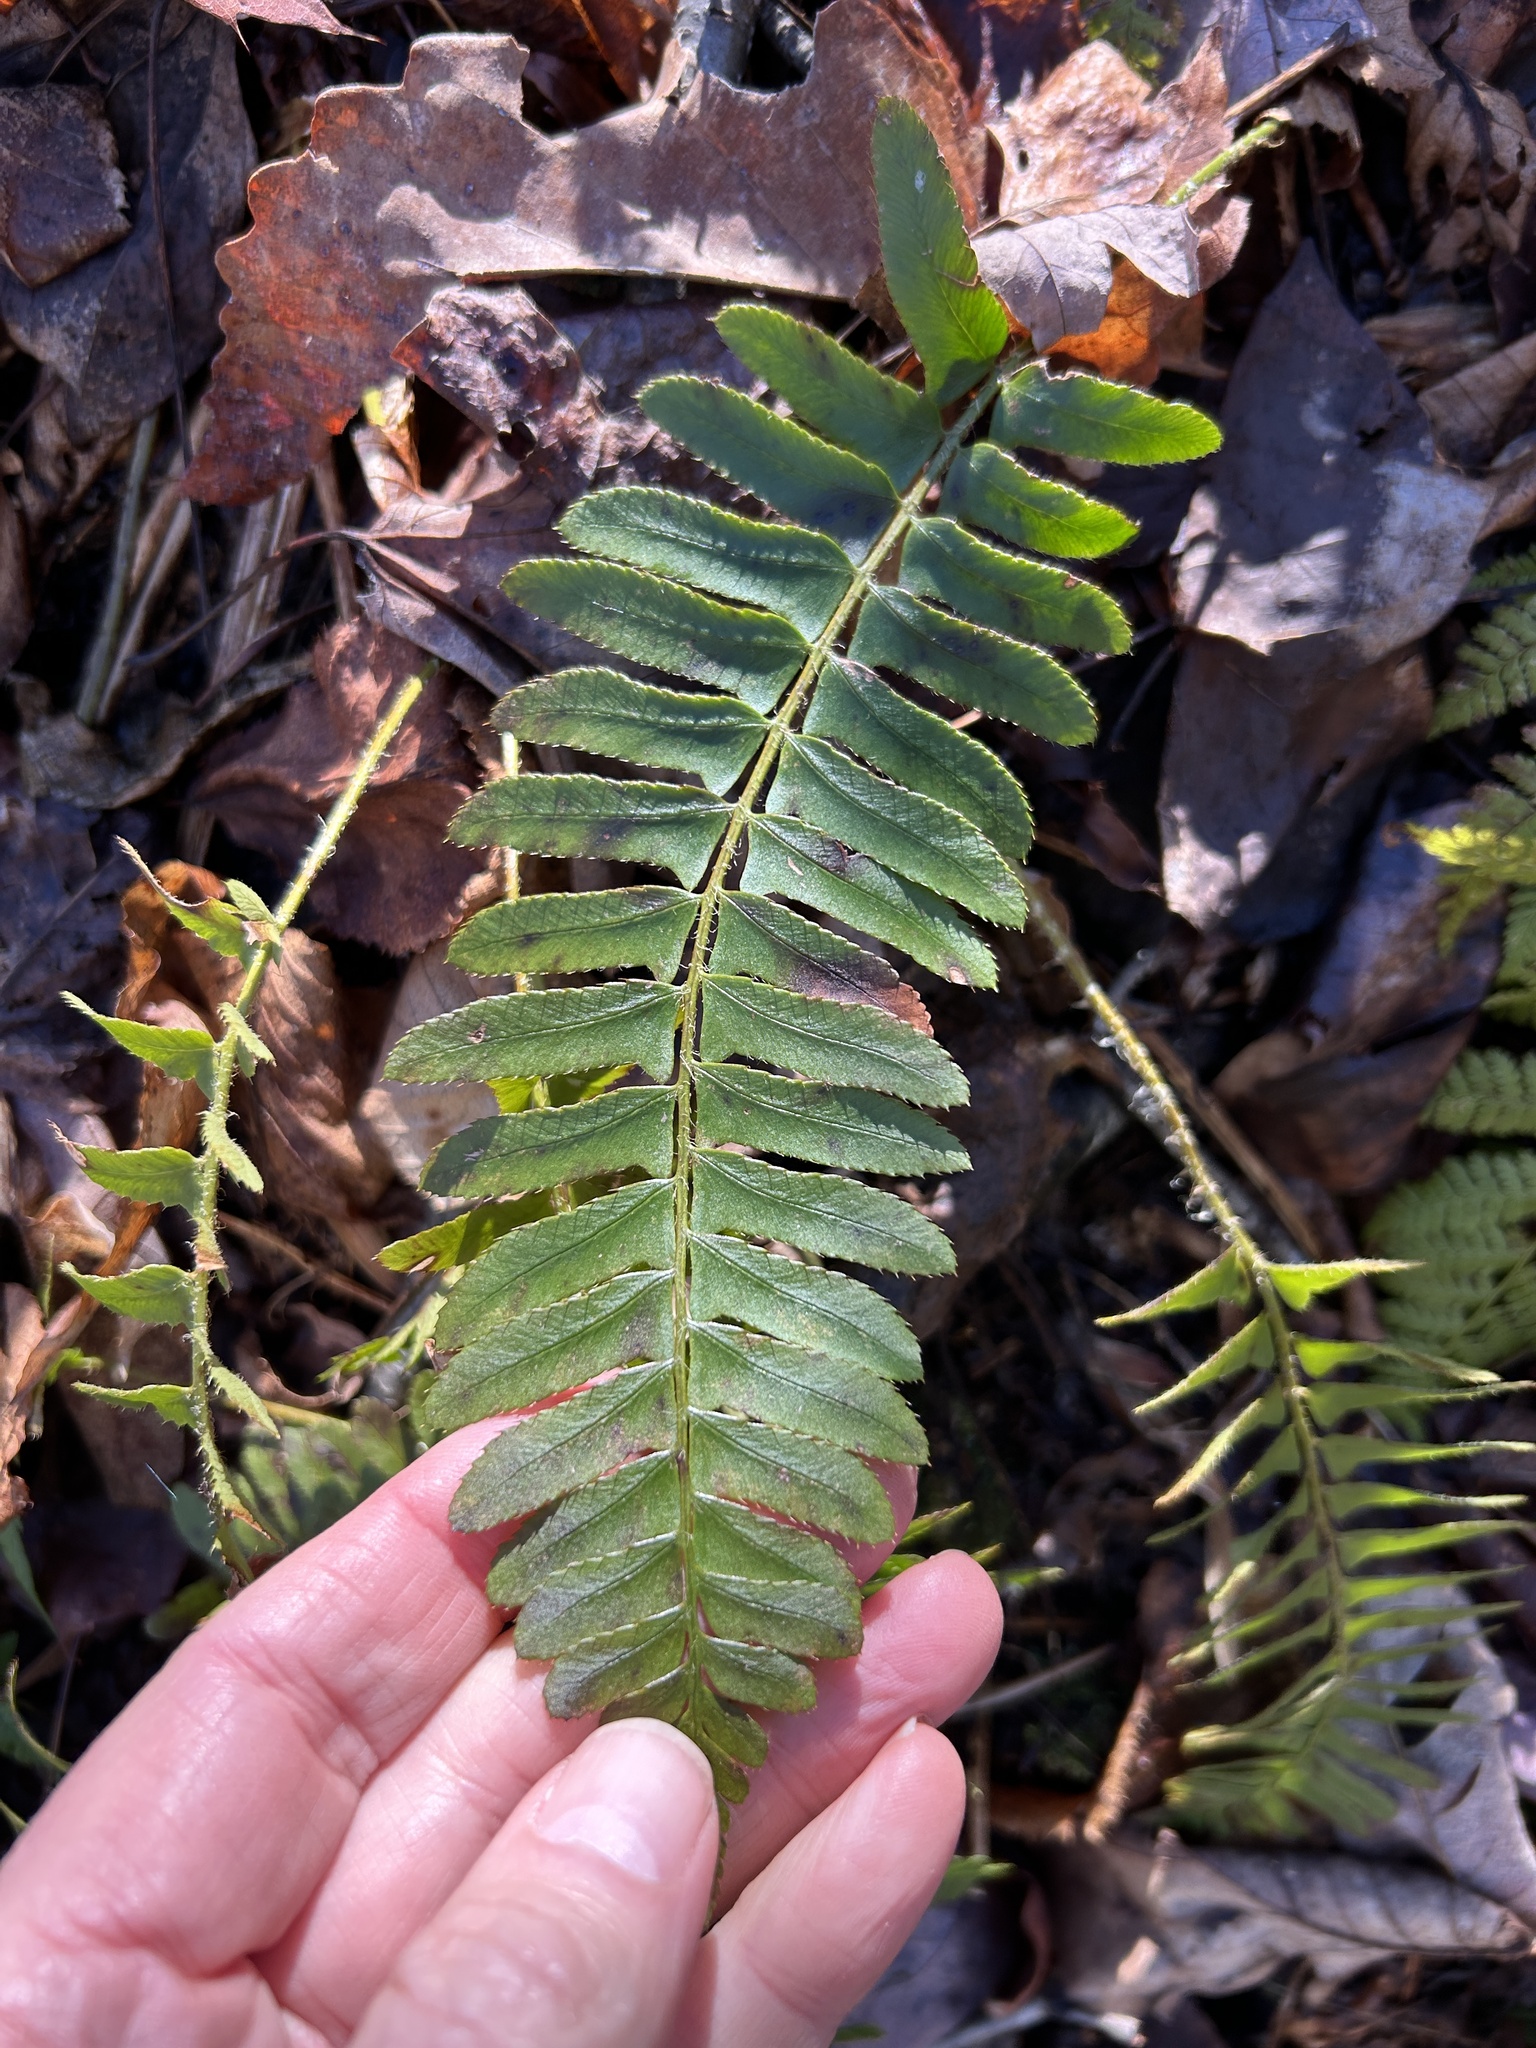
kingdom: Plantae
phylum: Tracheophyta
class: Polypodiopsida
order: Polypodiales
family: Dryopteridaceae
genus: Polystichum
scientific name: Polystichum acrostichoides
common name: Christmas fern
